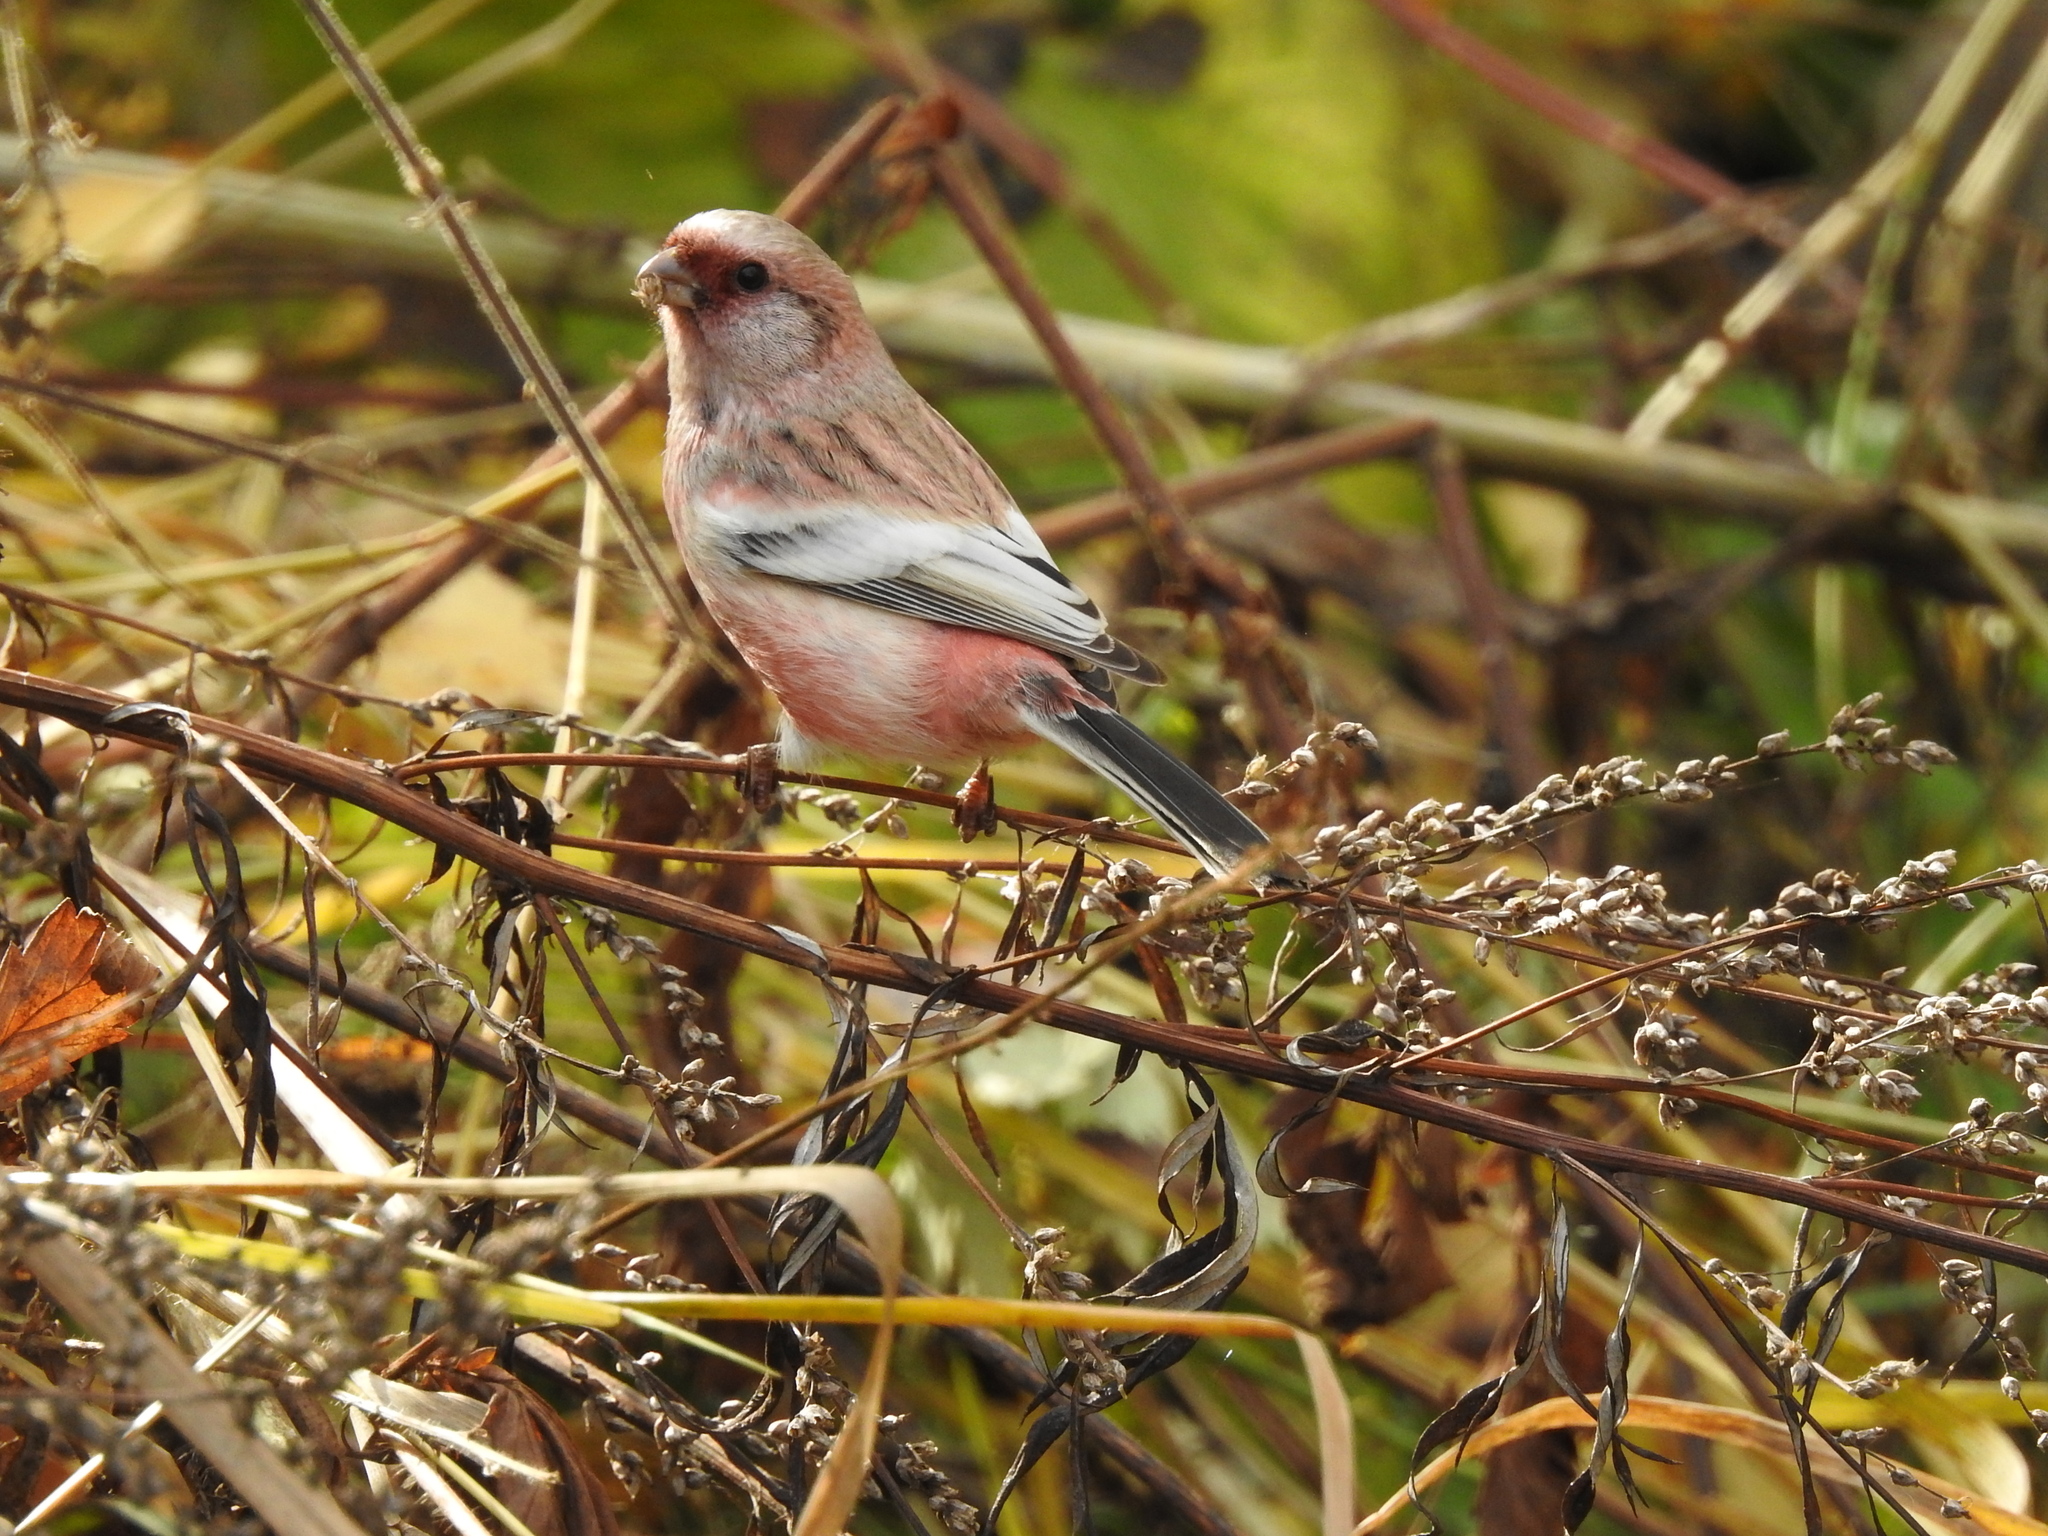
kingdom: Animalia
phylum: Chordata
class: Aves
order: Passeriformes
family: Fringillidae
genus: Carpodacus
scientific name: Carpodacus sibiricus
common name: Long-tailed rosefinch
